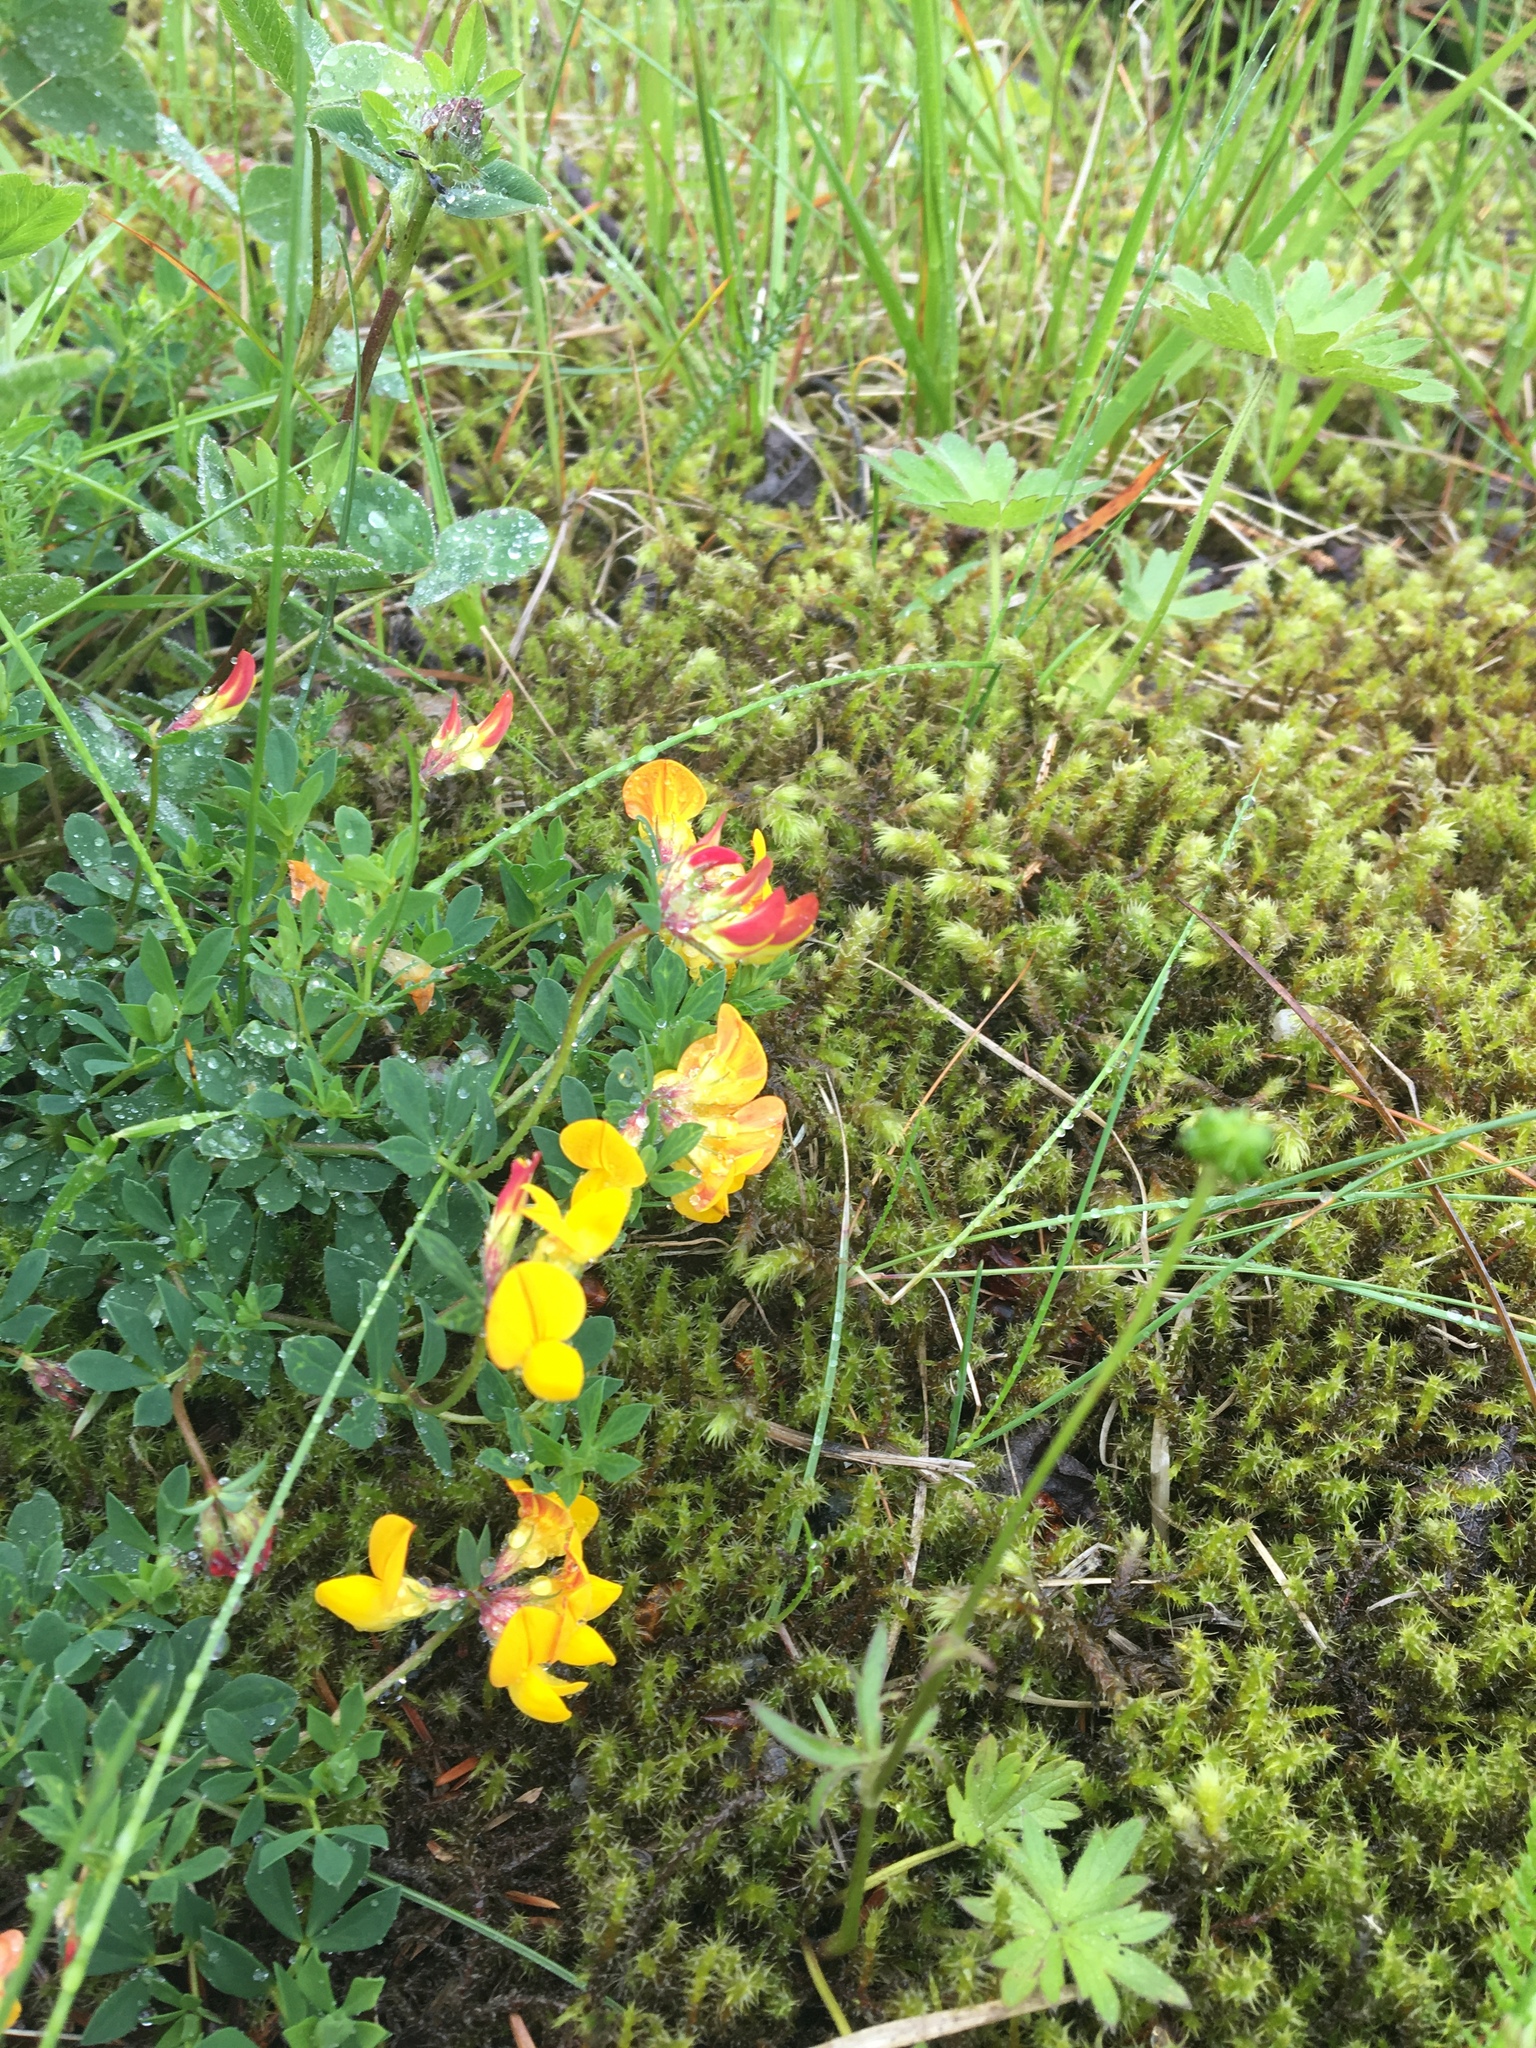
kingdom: Plantae
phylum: Tracheophyta
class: Magnoliopsida
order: Fabales
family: Fabaceae
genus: Lotus
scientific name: Lotus corniculatus
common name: Common bird's-foot-trefoil
